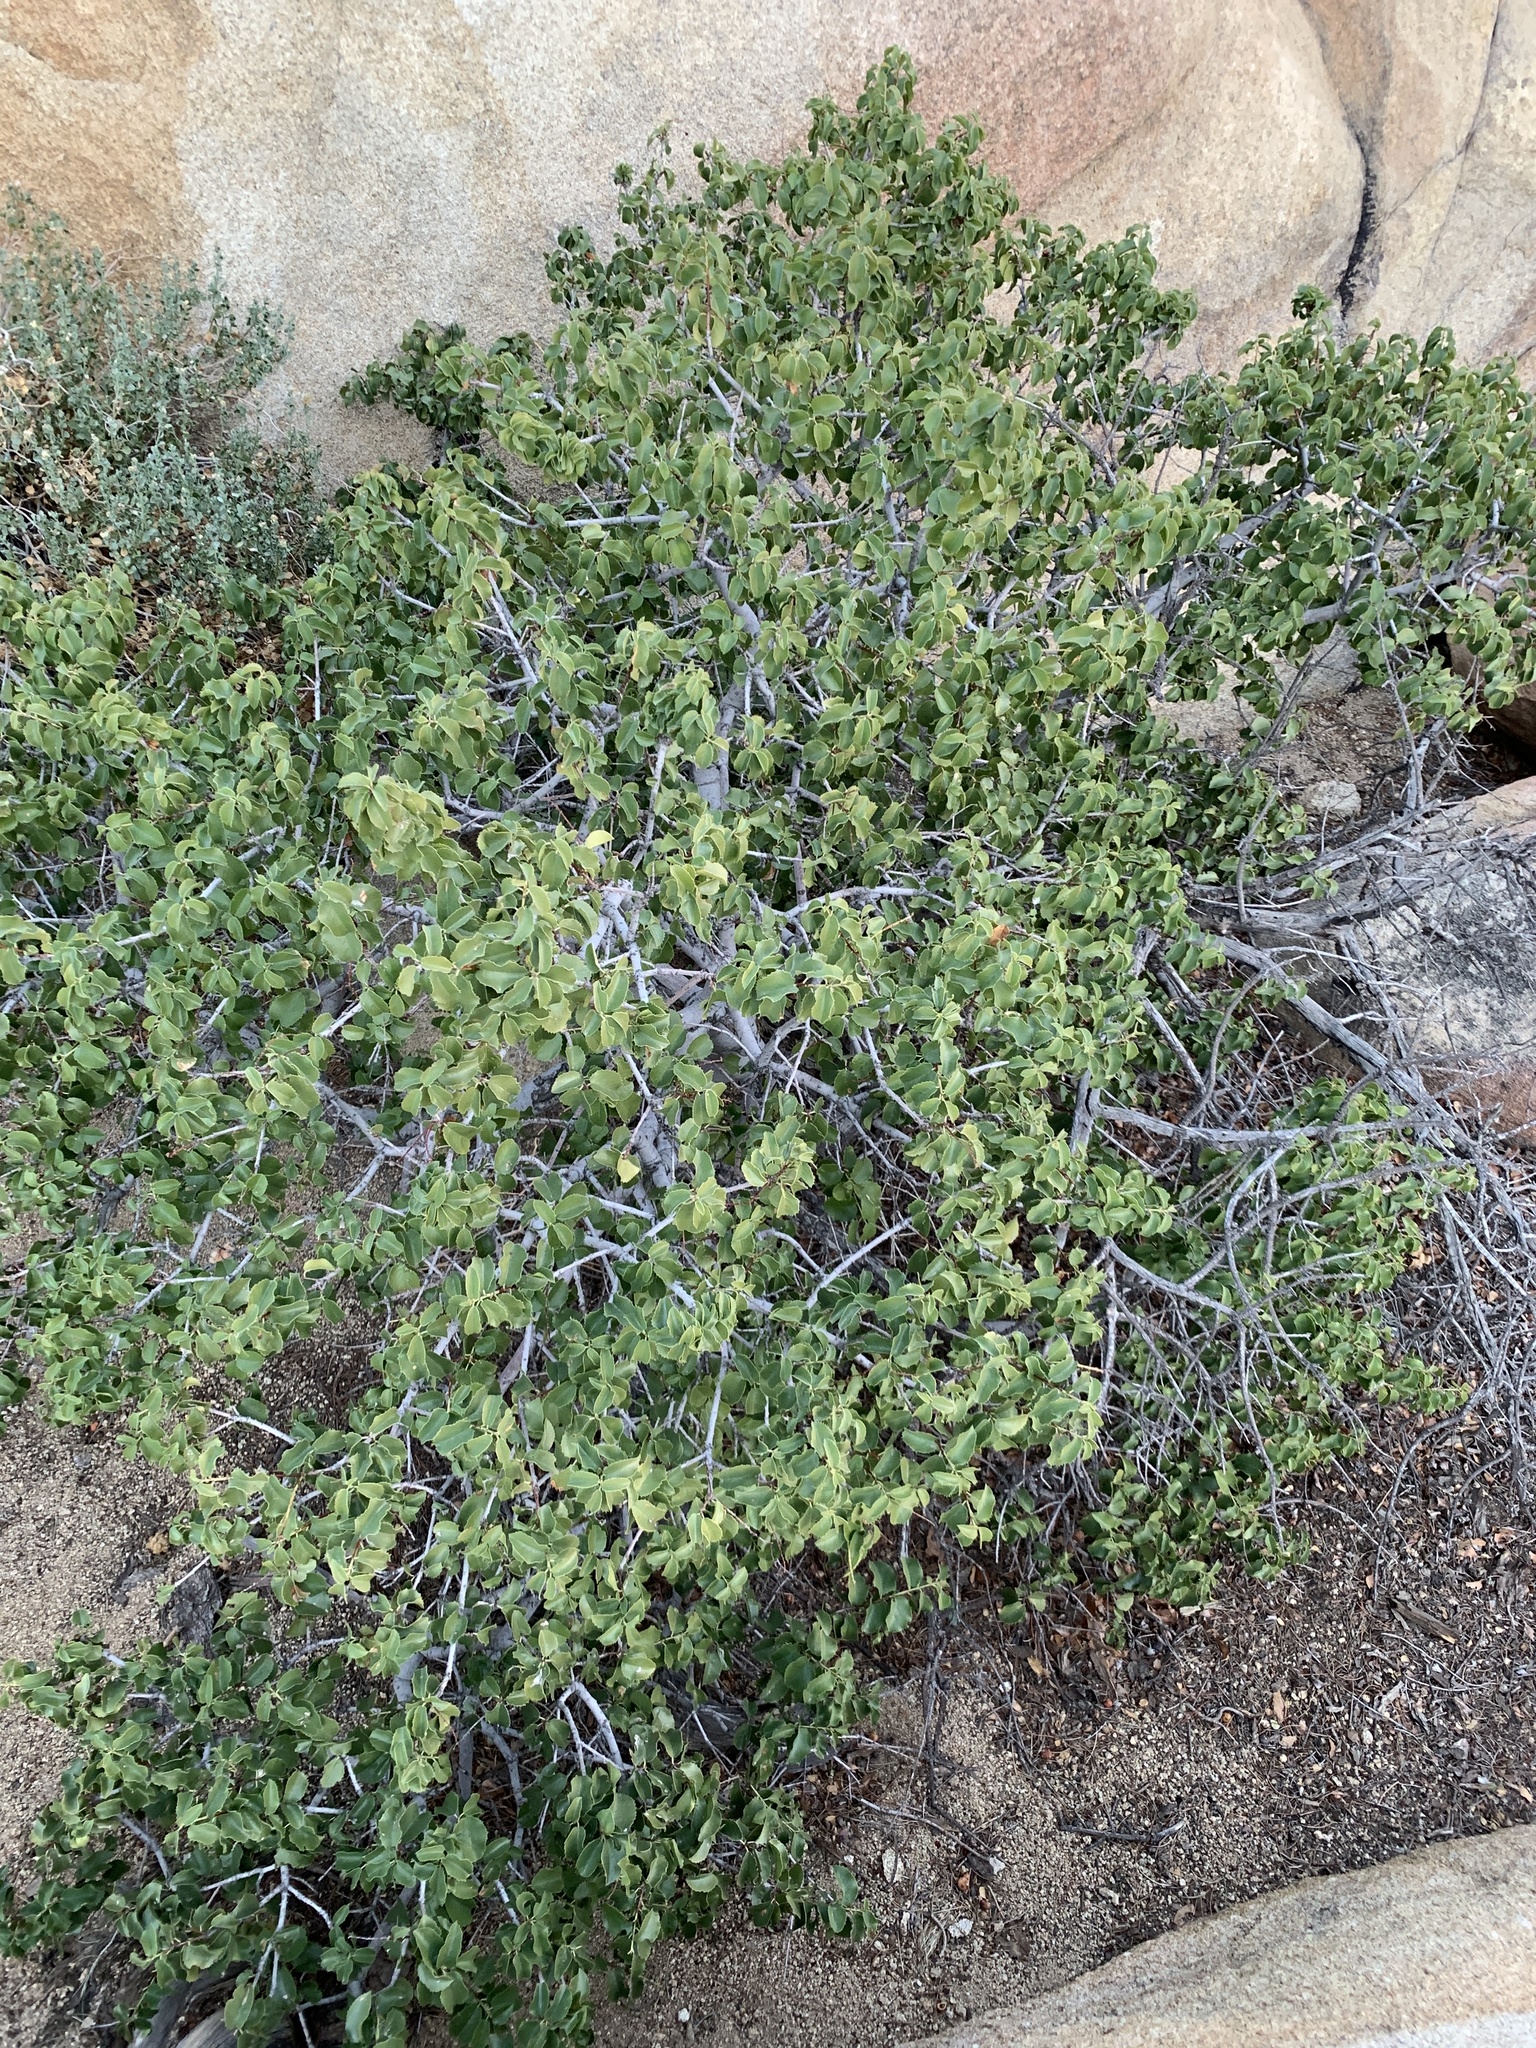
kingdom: Plantae
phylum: Tracheophyta
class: Magnoliopsida
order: Rosales
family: Rosaceae
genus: Prunus
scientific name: Prunus ilicifolia
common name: Hollyleaf cherry
